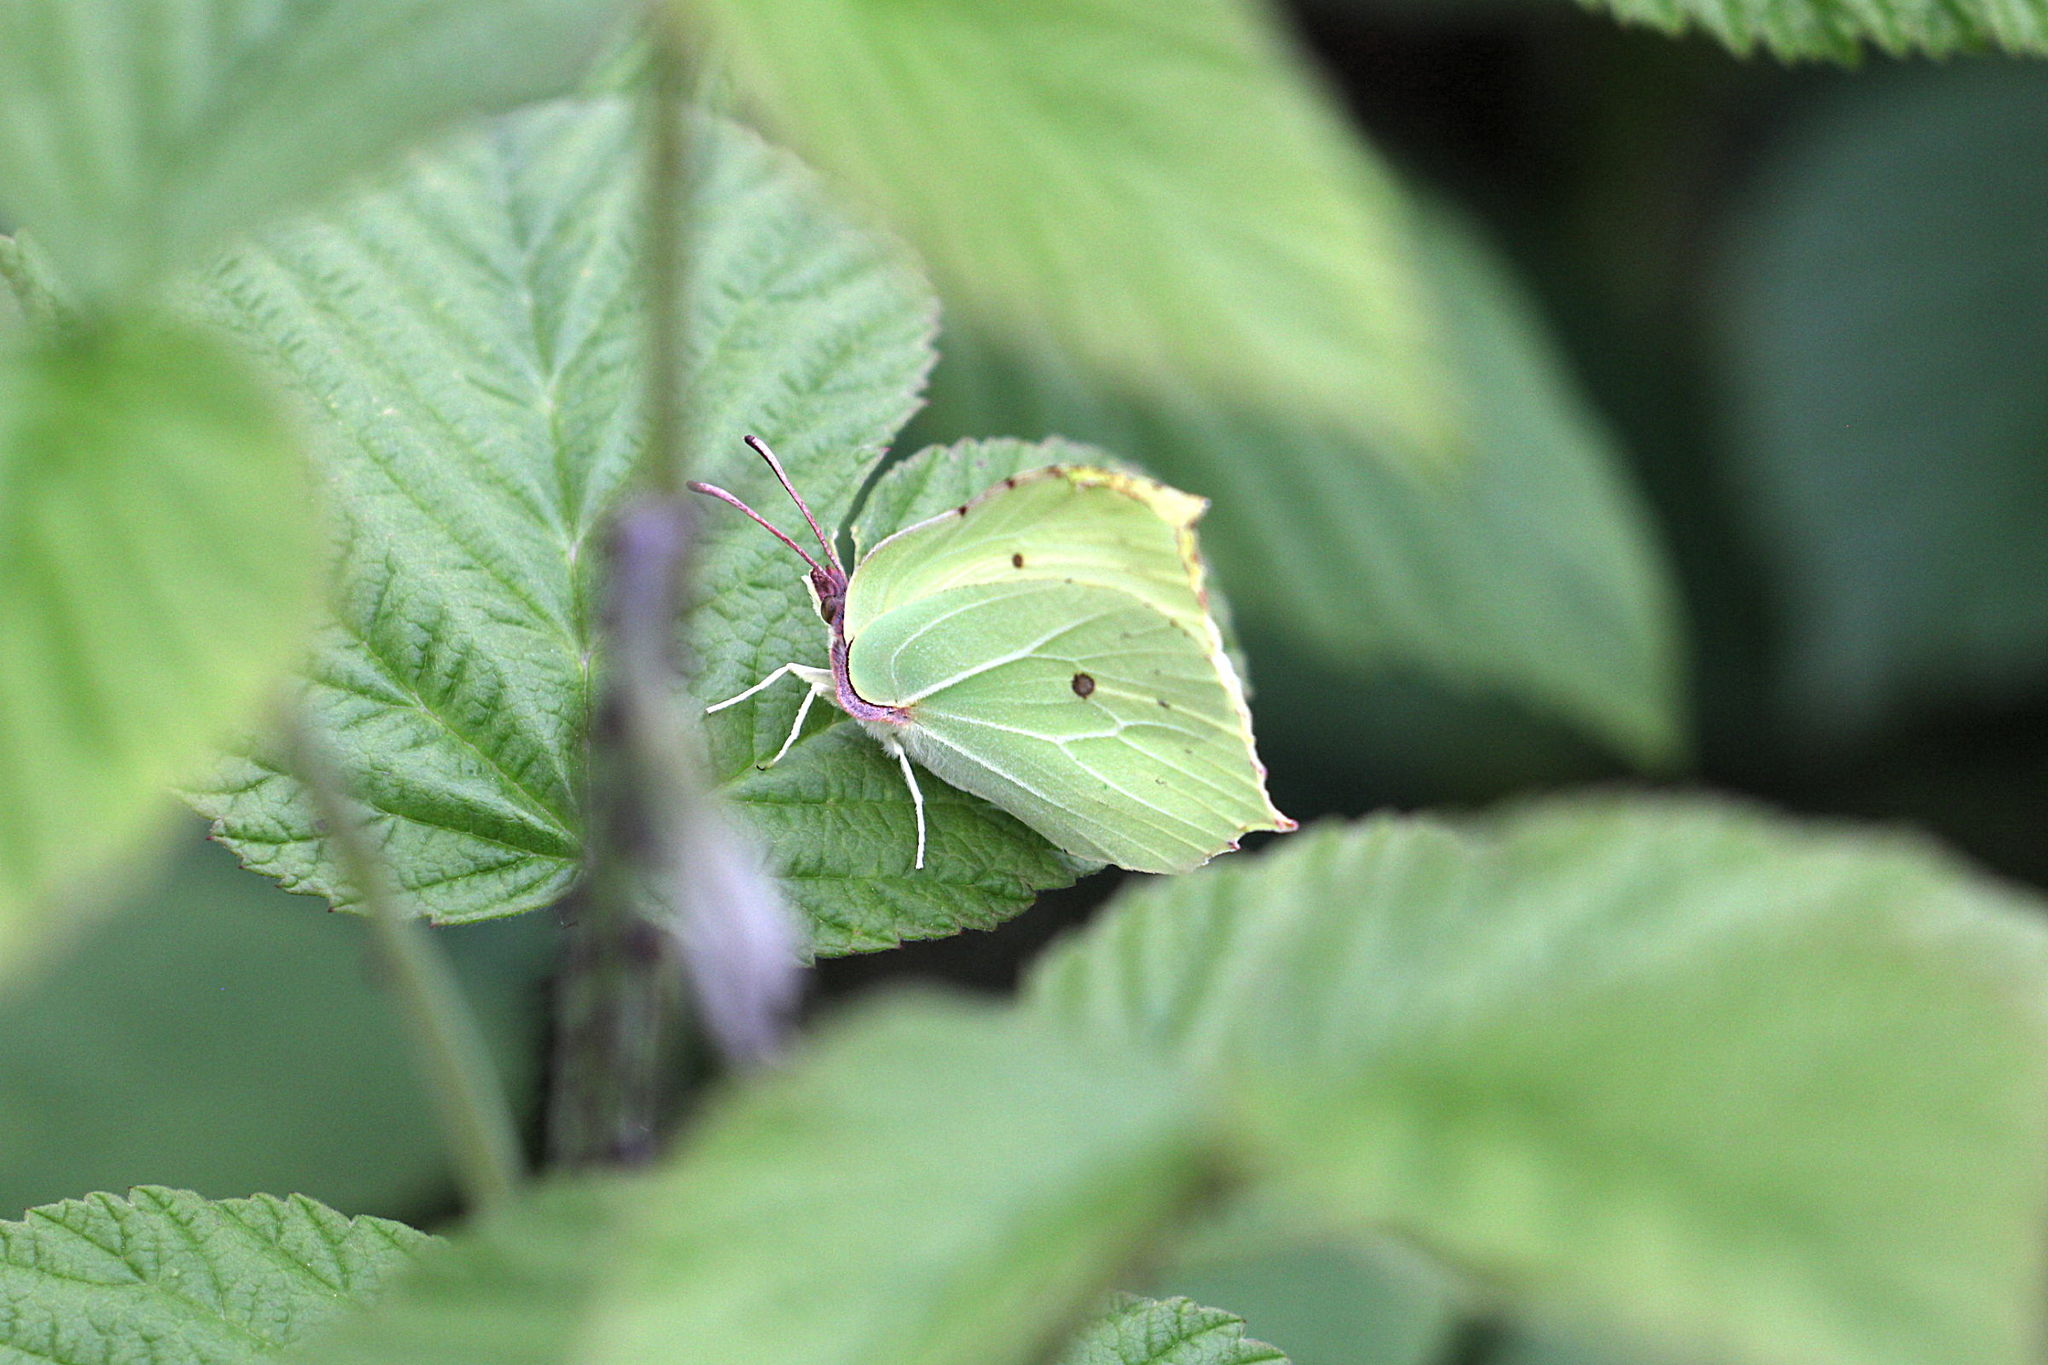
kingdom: Animalia
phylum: Arthropoda
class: Insecta
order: Lepidoptera
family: Pieridae
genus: Gonepteryx
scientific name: Gonepteryx rhamni
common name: Brimstone
